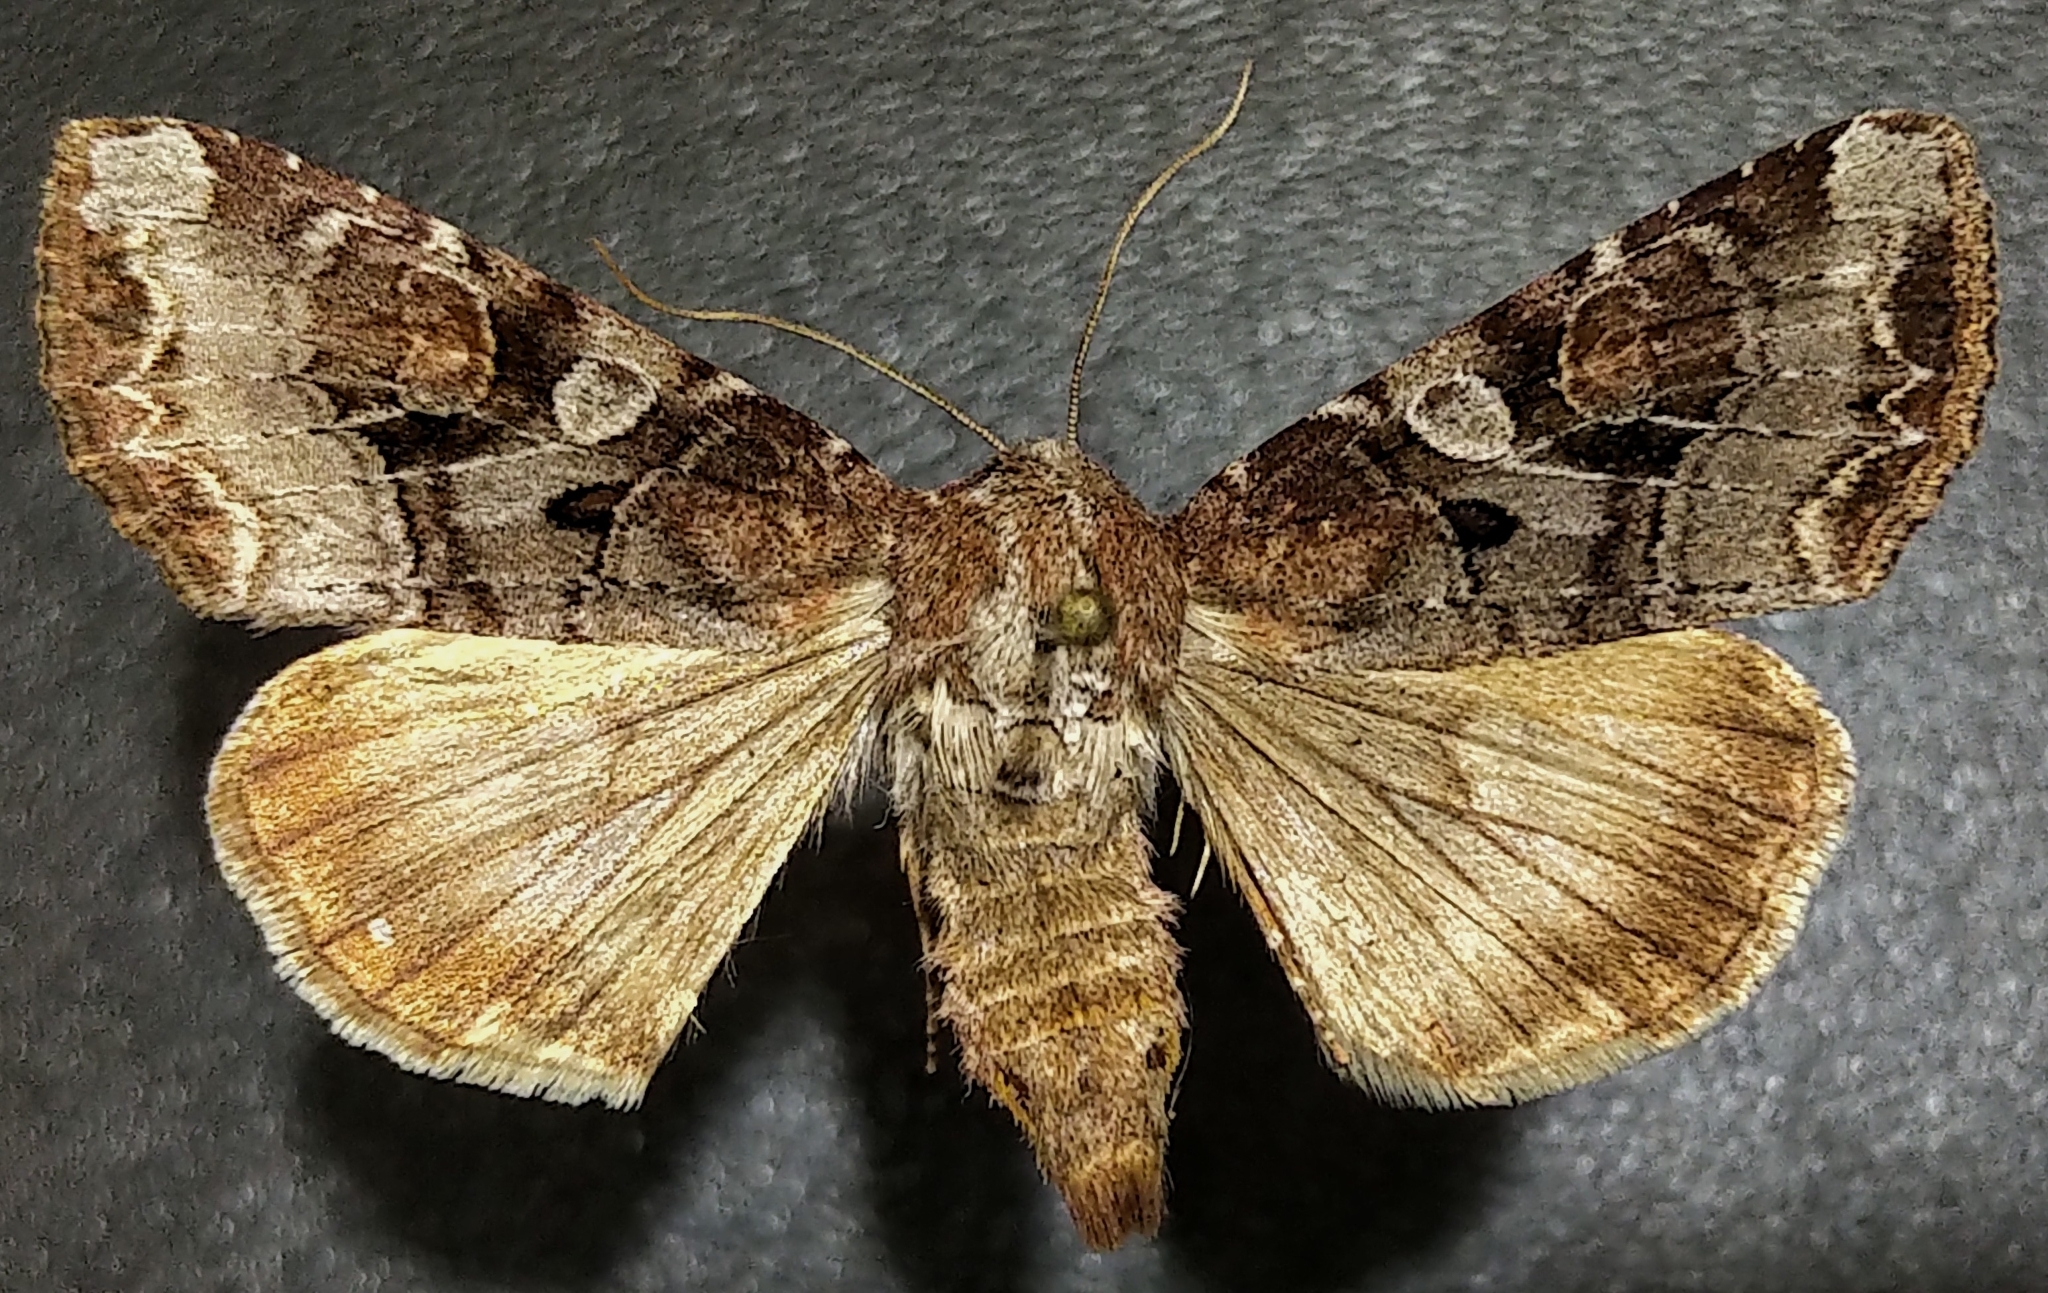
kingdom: Animalia
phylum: Arthropoda
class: Insecta
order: Lepidoptera
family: Noctuidae
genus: Trichordestra
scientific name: Trichordestra tacoma
